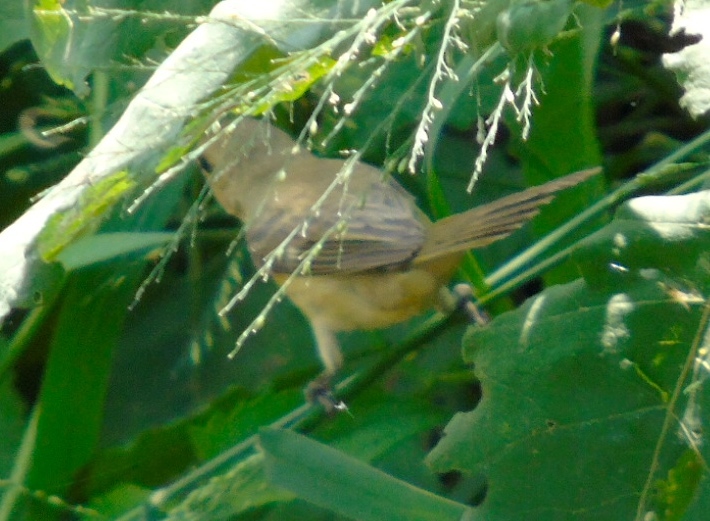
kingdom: Animalia
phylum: Chordata
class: Aves
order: Passeriformes
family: Thraupidae
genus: Sporophila
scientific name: Sporophila torqueola
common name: White-collared seedeater
